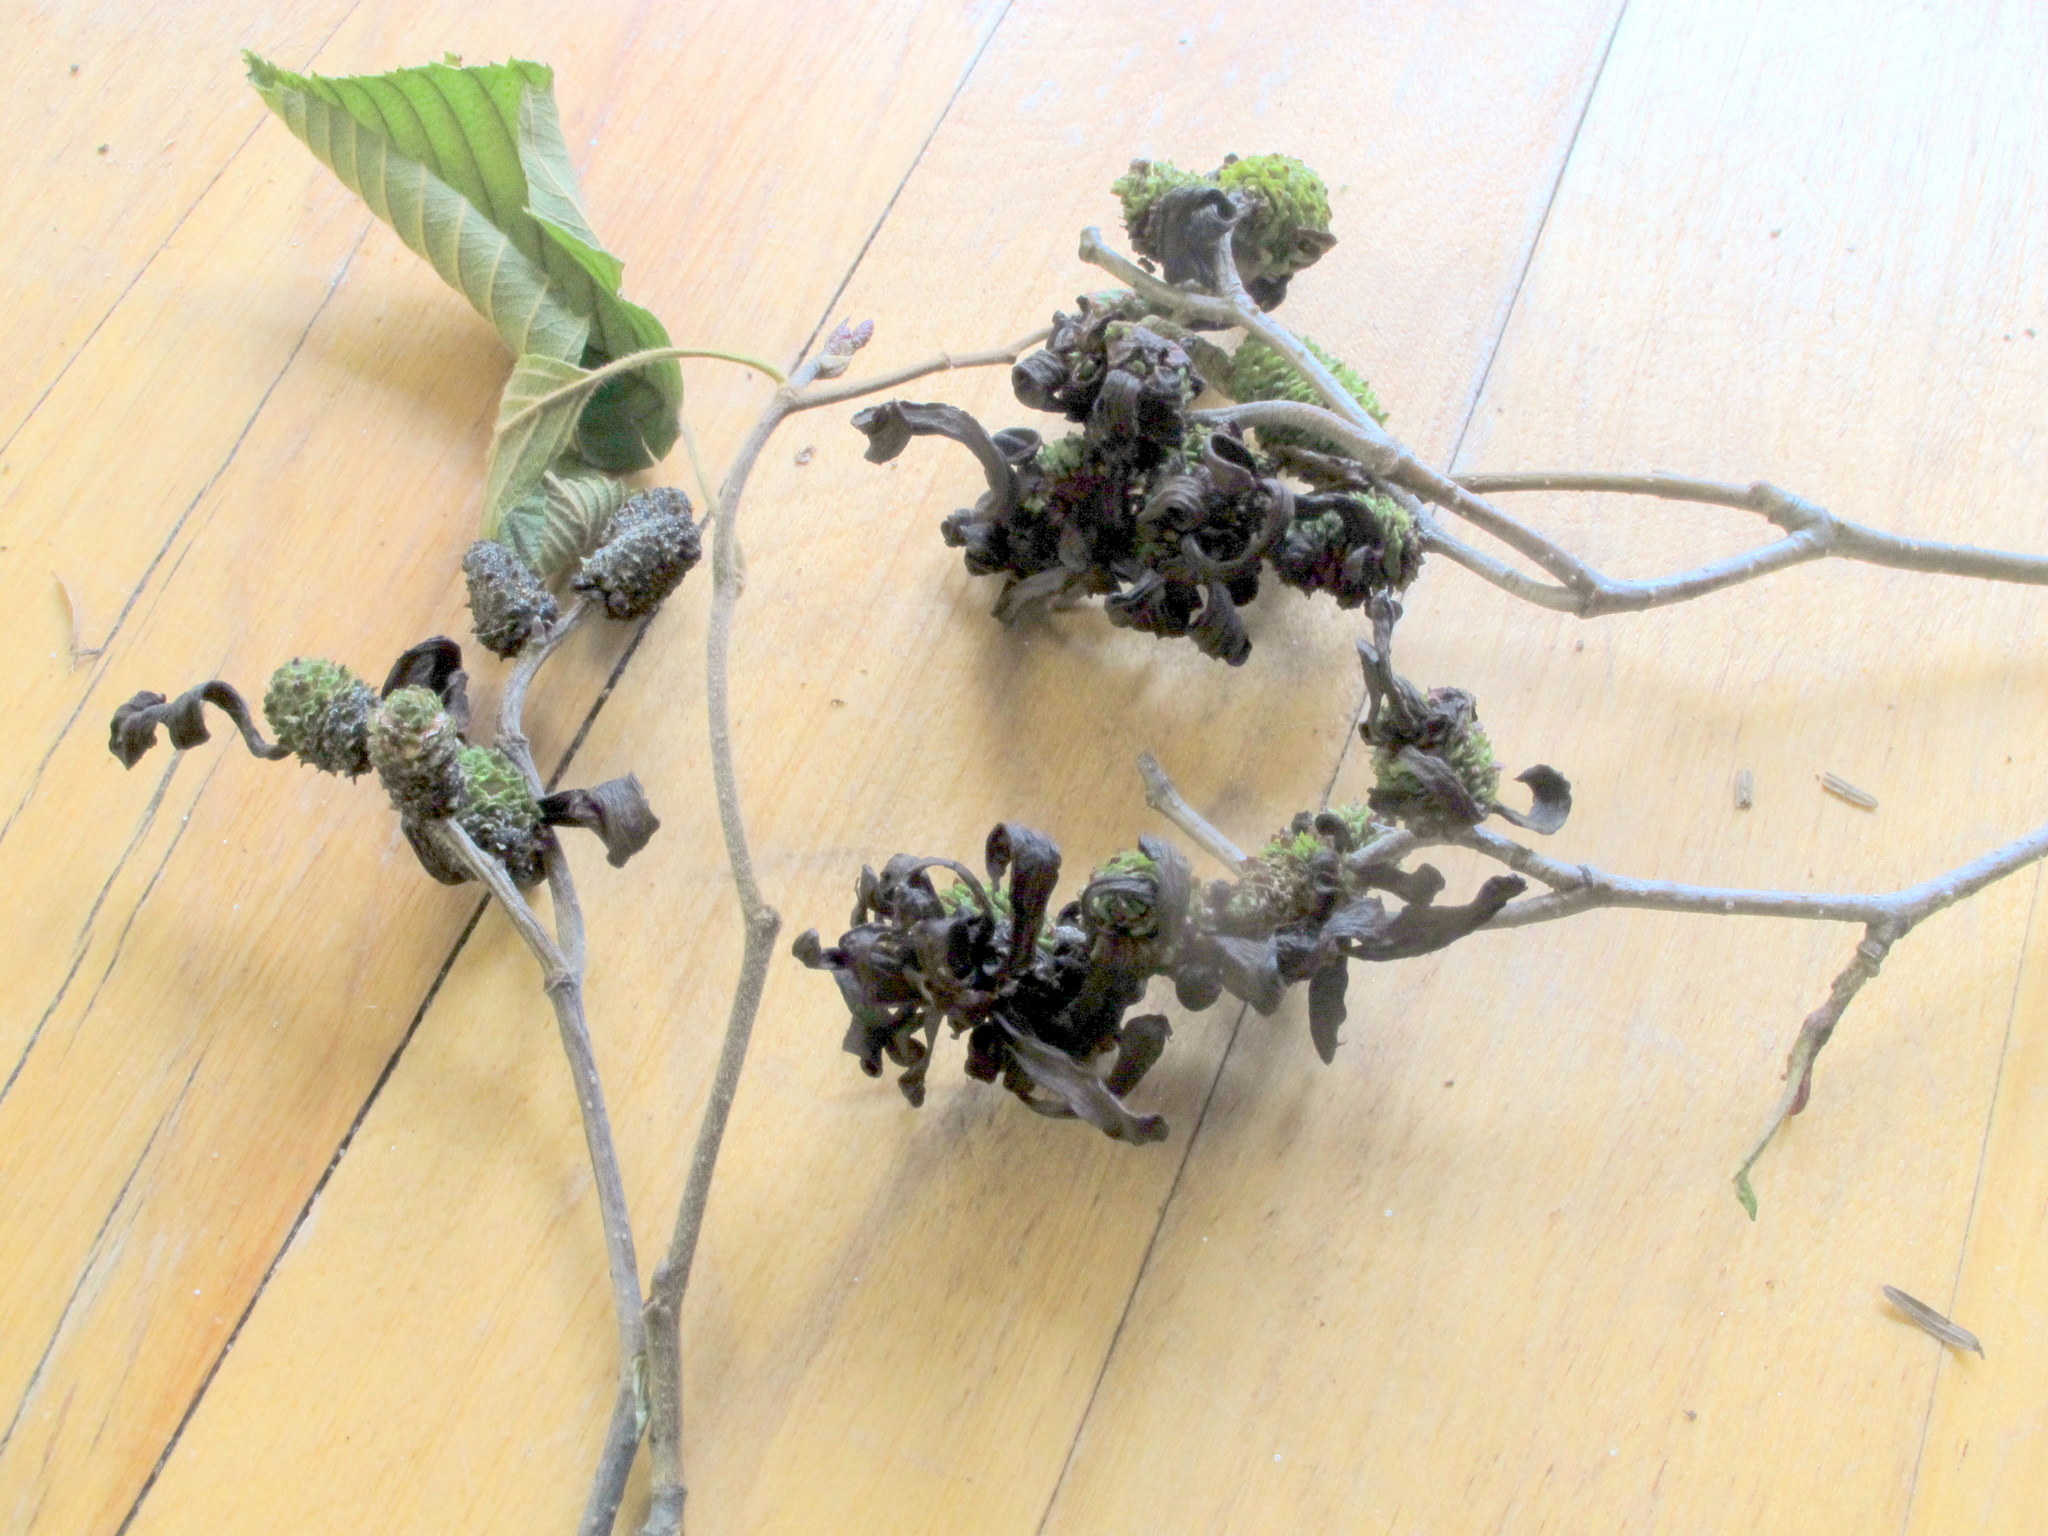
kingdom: Fungi
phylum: Ascomycota
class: Taphrinomycetes
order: Taphrinales
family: Taphrinaceae
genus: Taphrina
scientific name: Taphrina robinsoniana
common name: Eastern american alder tongue gall fungus
